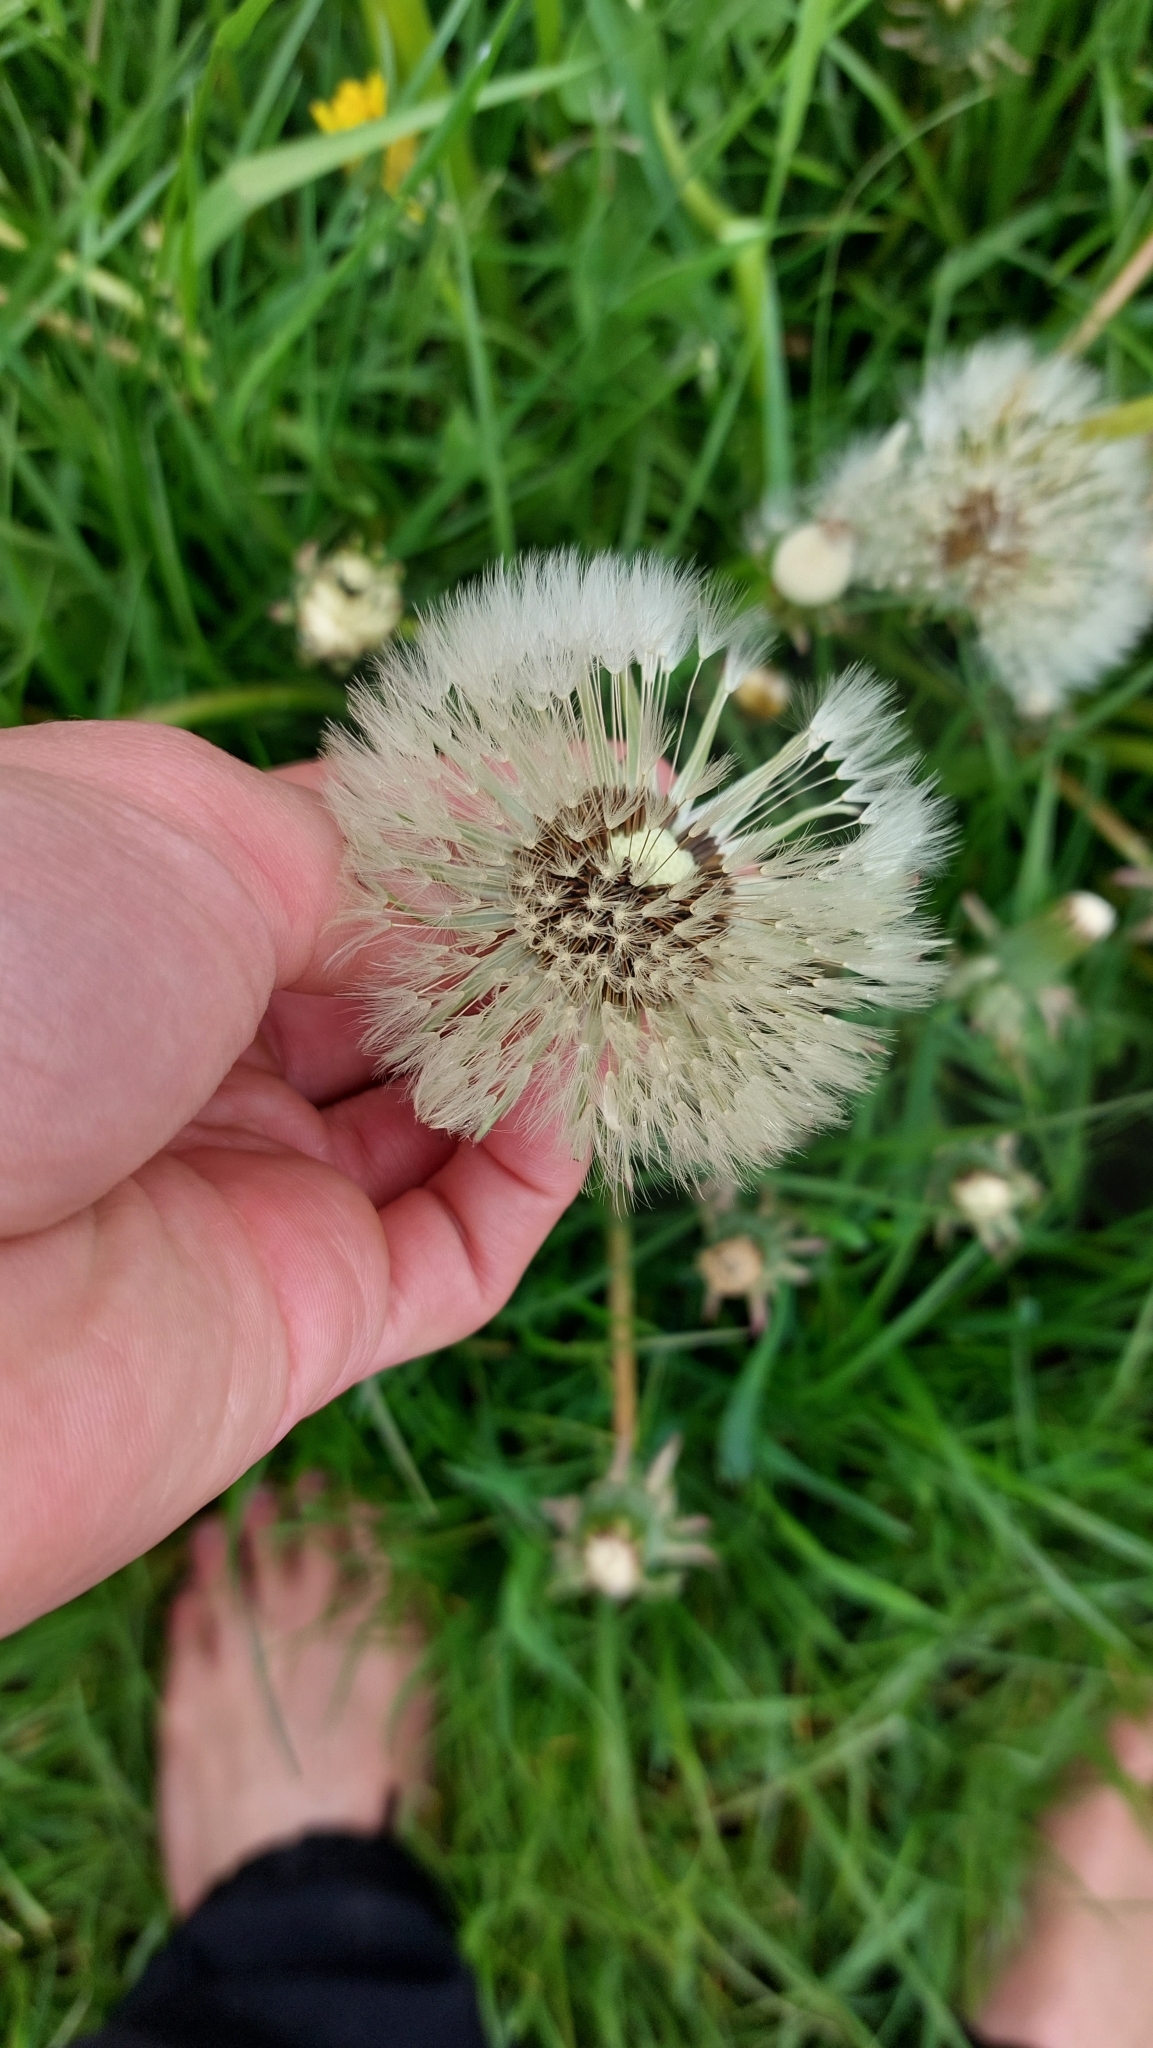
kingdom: Plantae
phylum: Tracheophyta
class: Magnoliopsida
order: Asterales
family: Asteraceae
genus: Taraxacum
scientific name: Taraxacum
